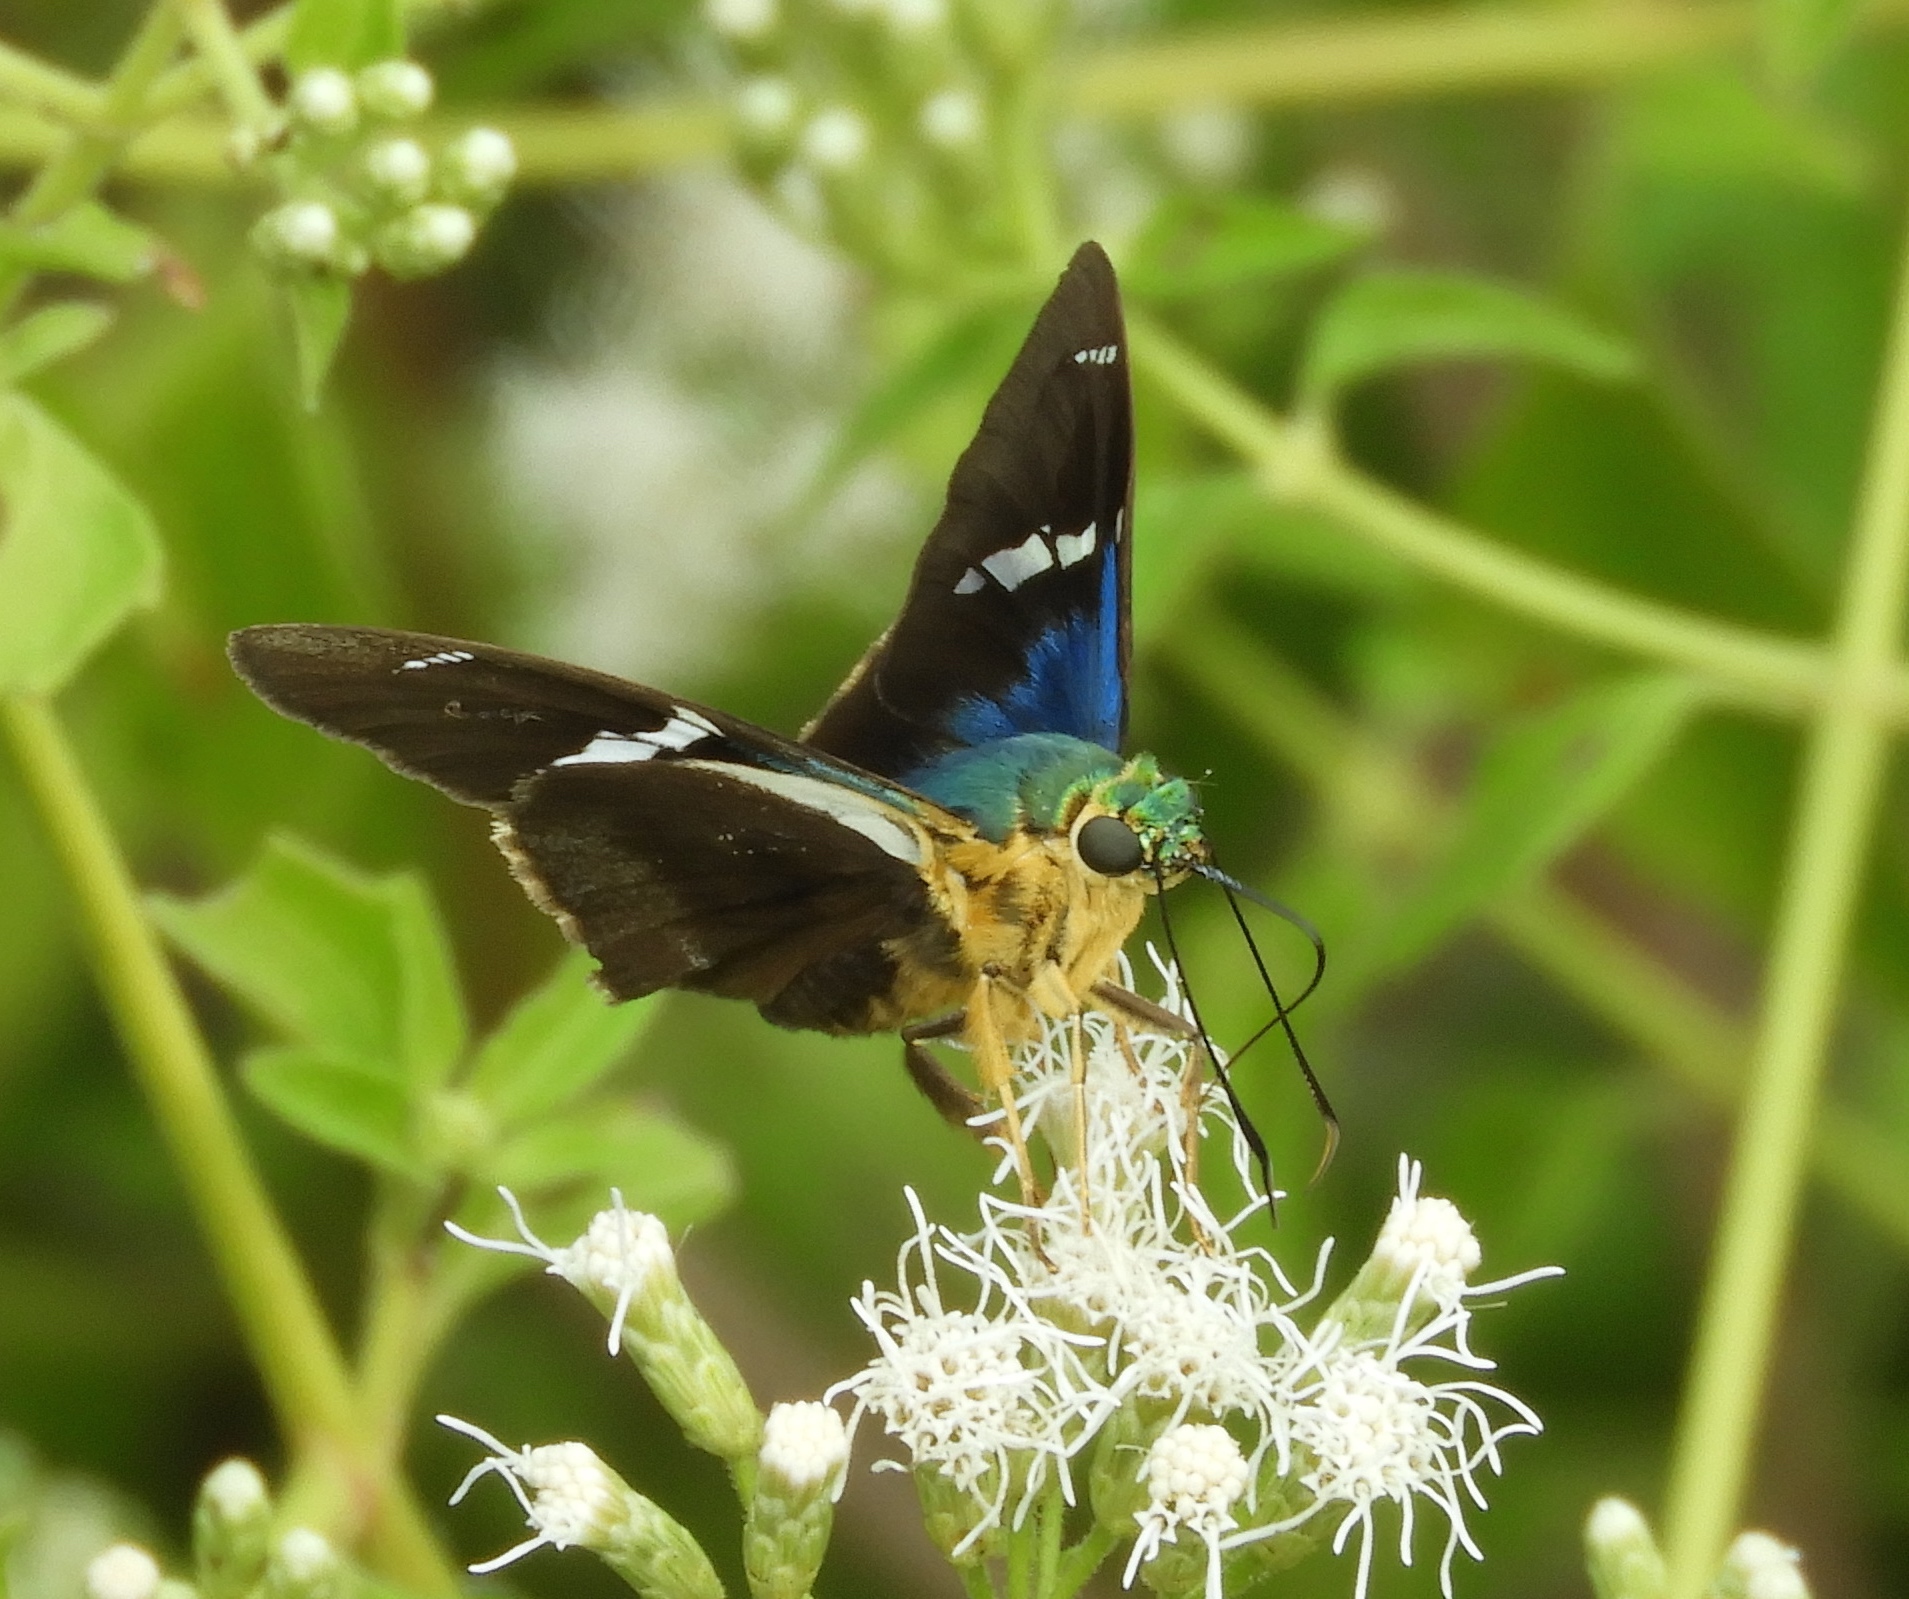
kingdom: Animalia
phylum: Arthropoda
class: Insecta
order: Lepidoptera
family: Hesperiidae
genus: Astraptes
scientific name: Astraptes fulgerator
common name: Two-barred flasher
